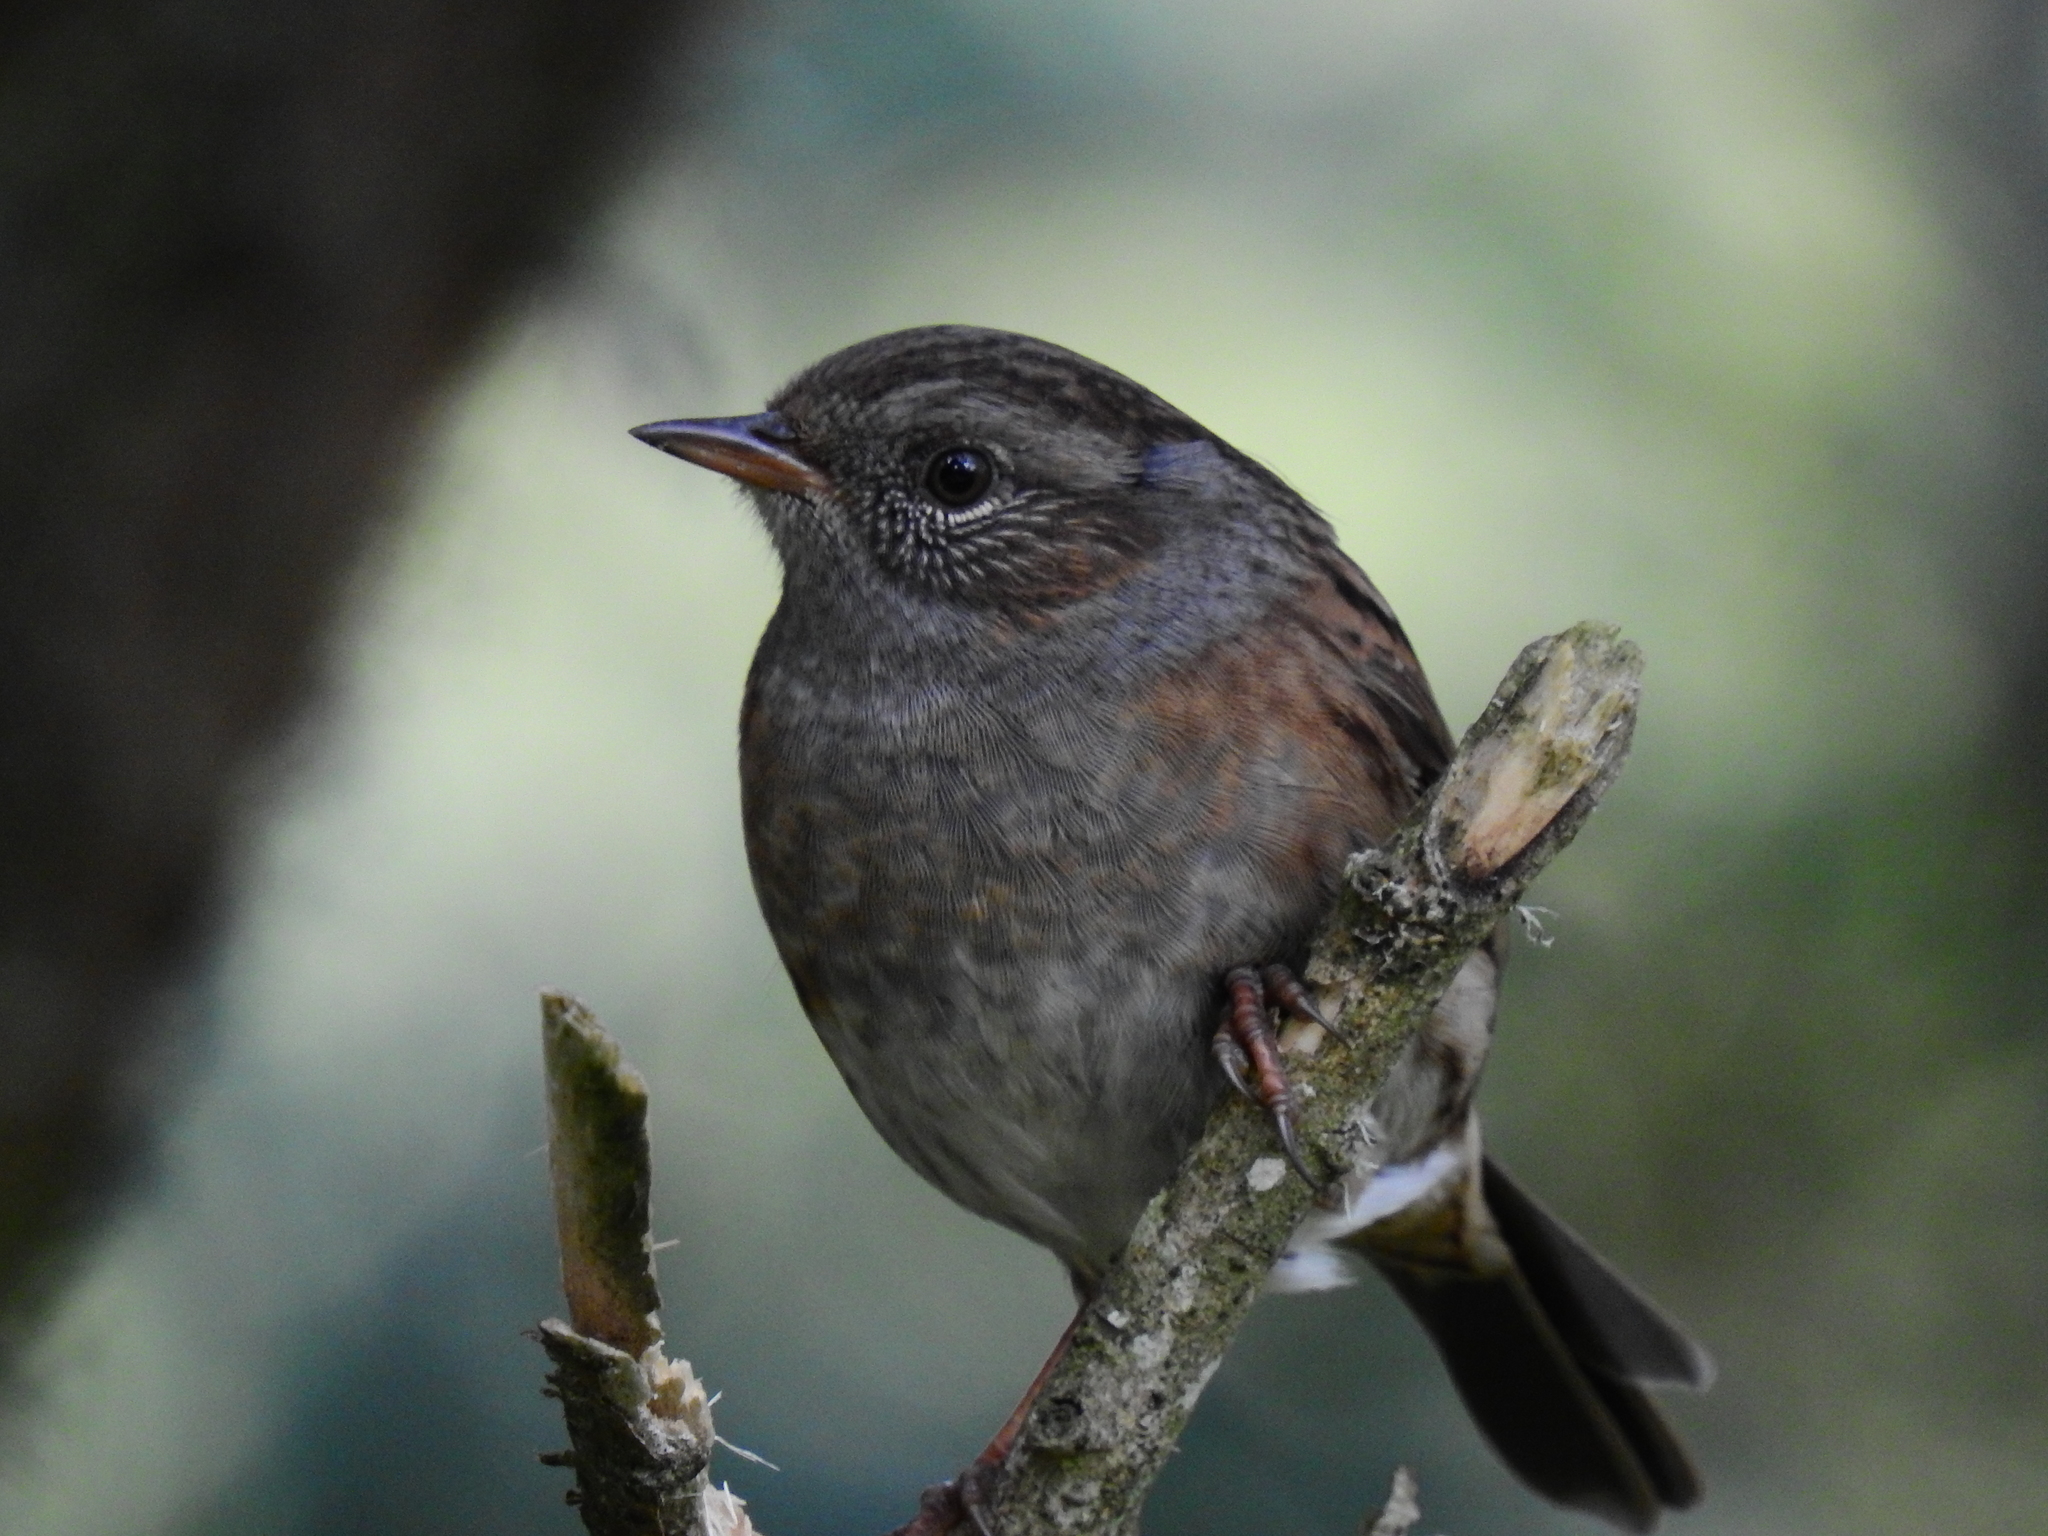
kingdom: Animalia
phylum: Chordata
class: Aves
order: Passeriformes
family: Prunellidae
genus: Prunella
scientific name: Prunella modularis
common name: Dunnock
